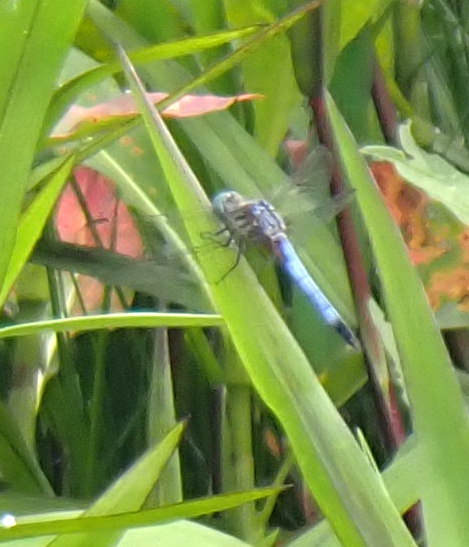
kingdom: Animalia
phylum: Arthropoda
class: Insecta
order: Odonata
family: Libellulidae
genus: Pachydiplax
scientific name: Pachydiplax longipennis
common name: Blue dasher
